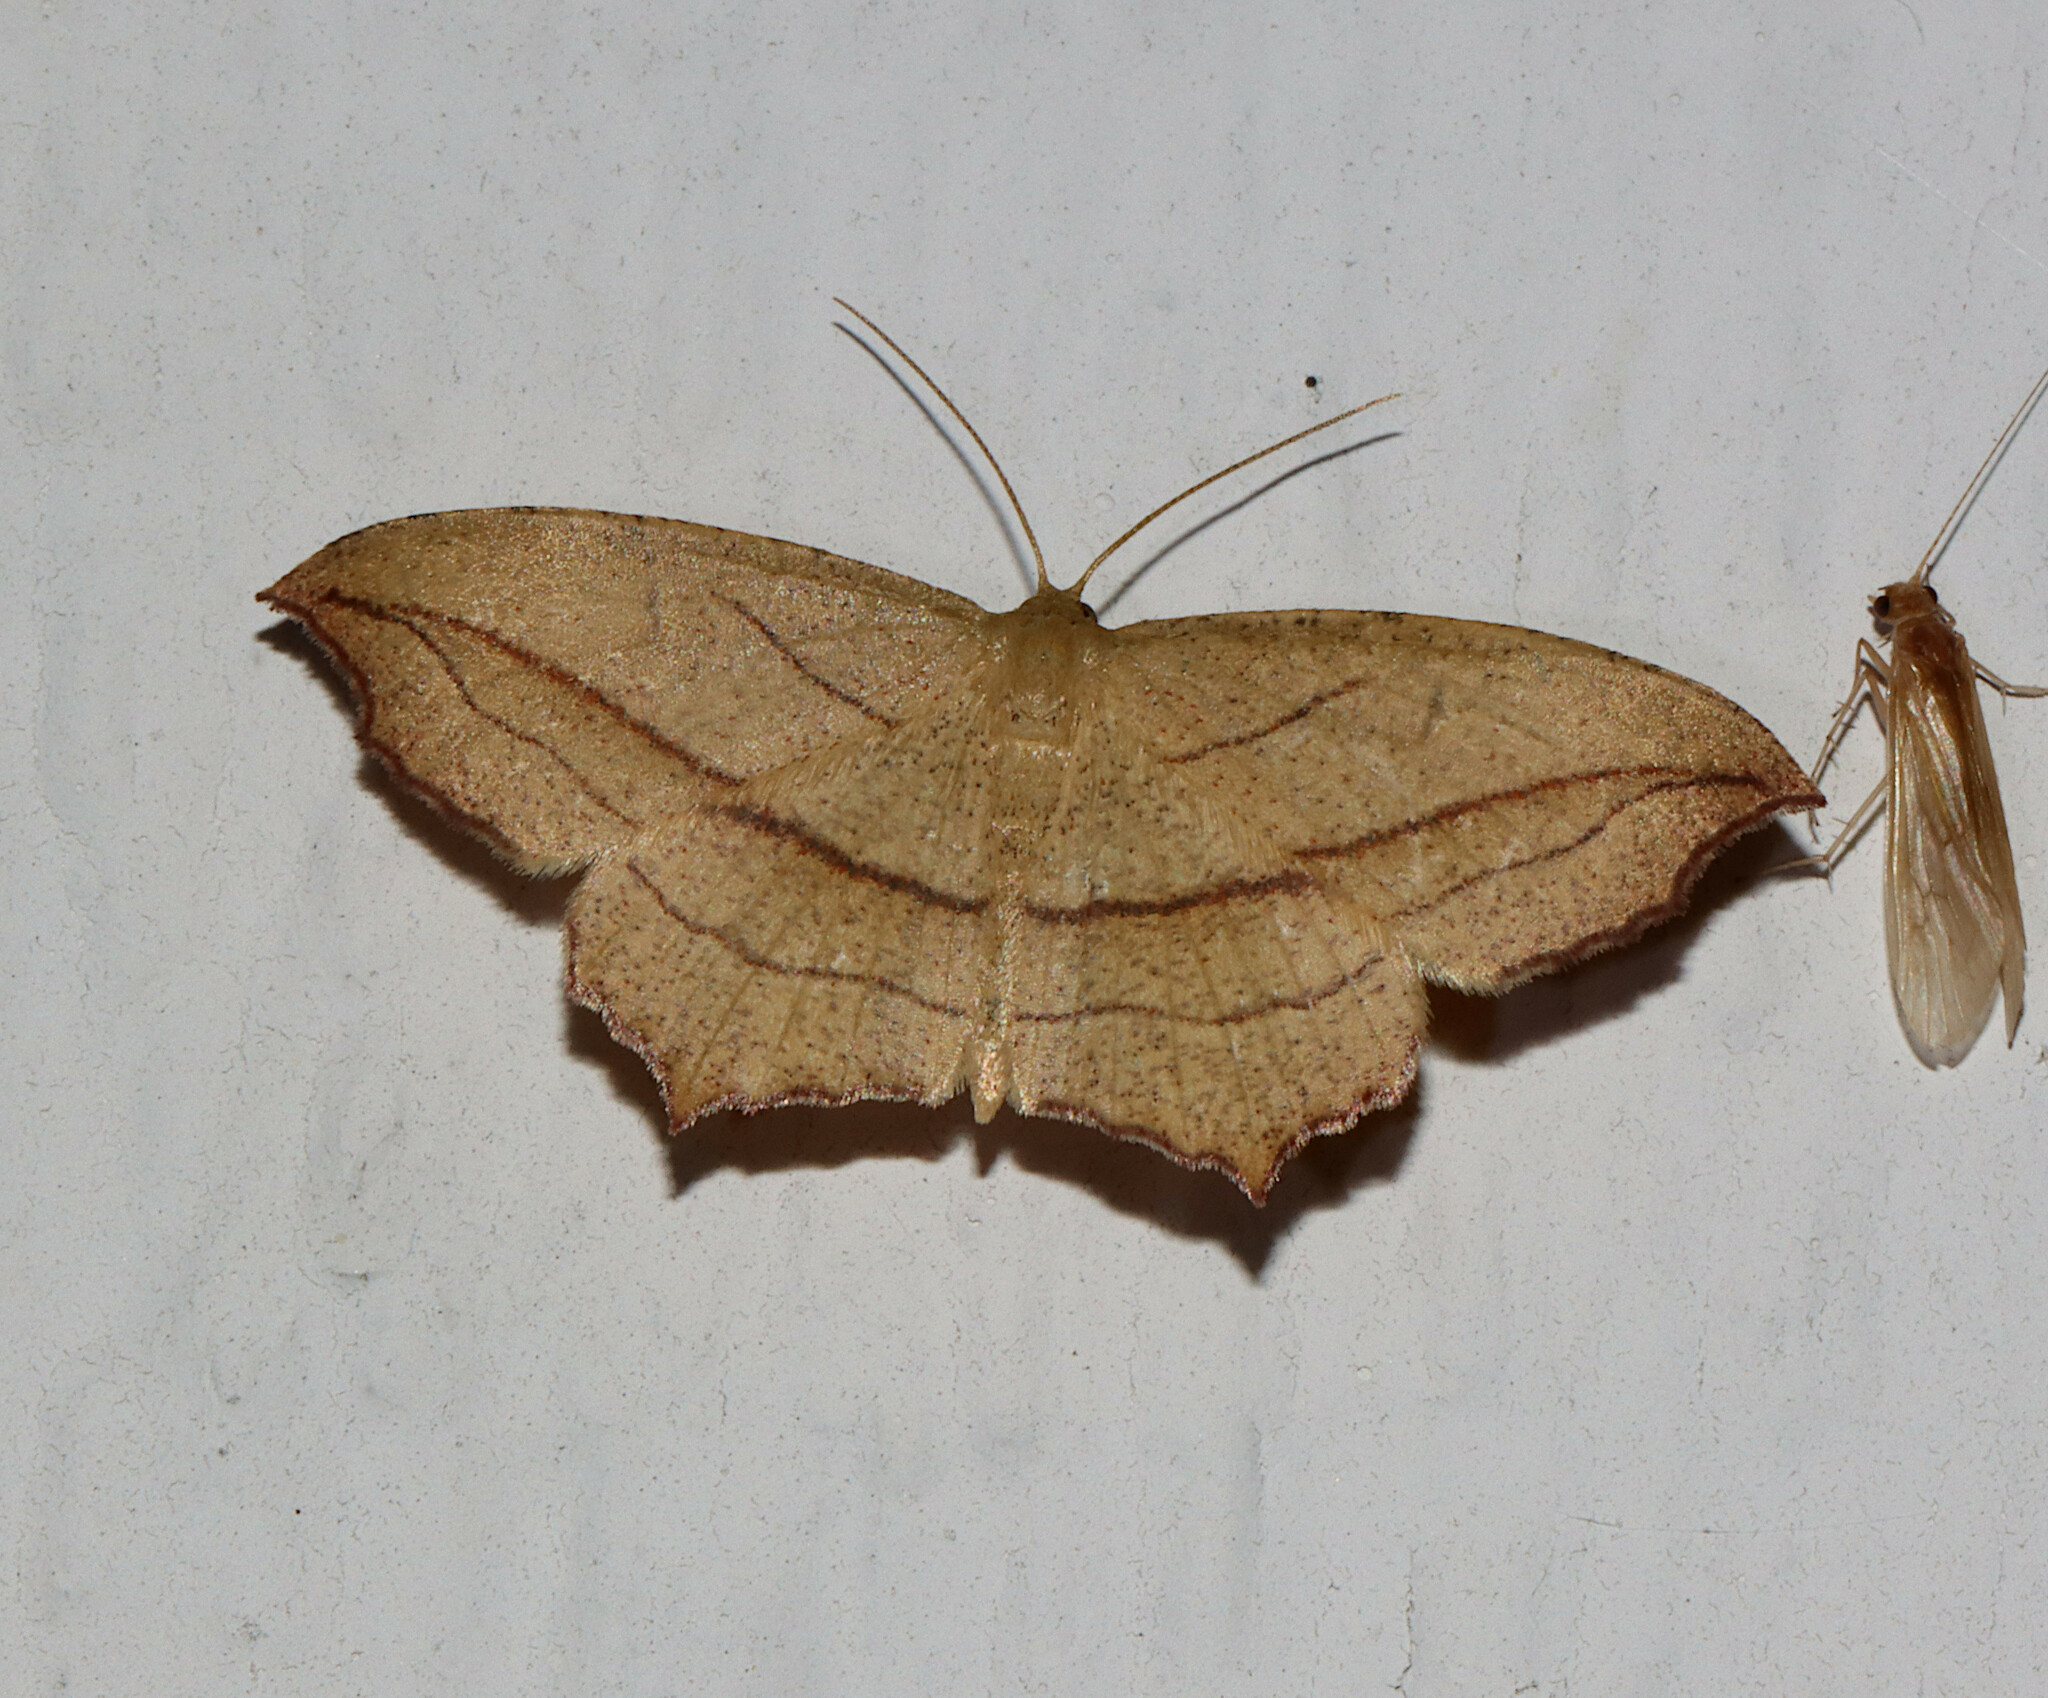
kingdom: Animalia
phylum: Arthropoda
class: Insecta
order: Lepidoptera
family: Geometridae
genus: Timandra
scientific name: Timandra amaturaria
